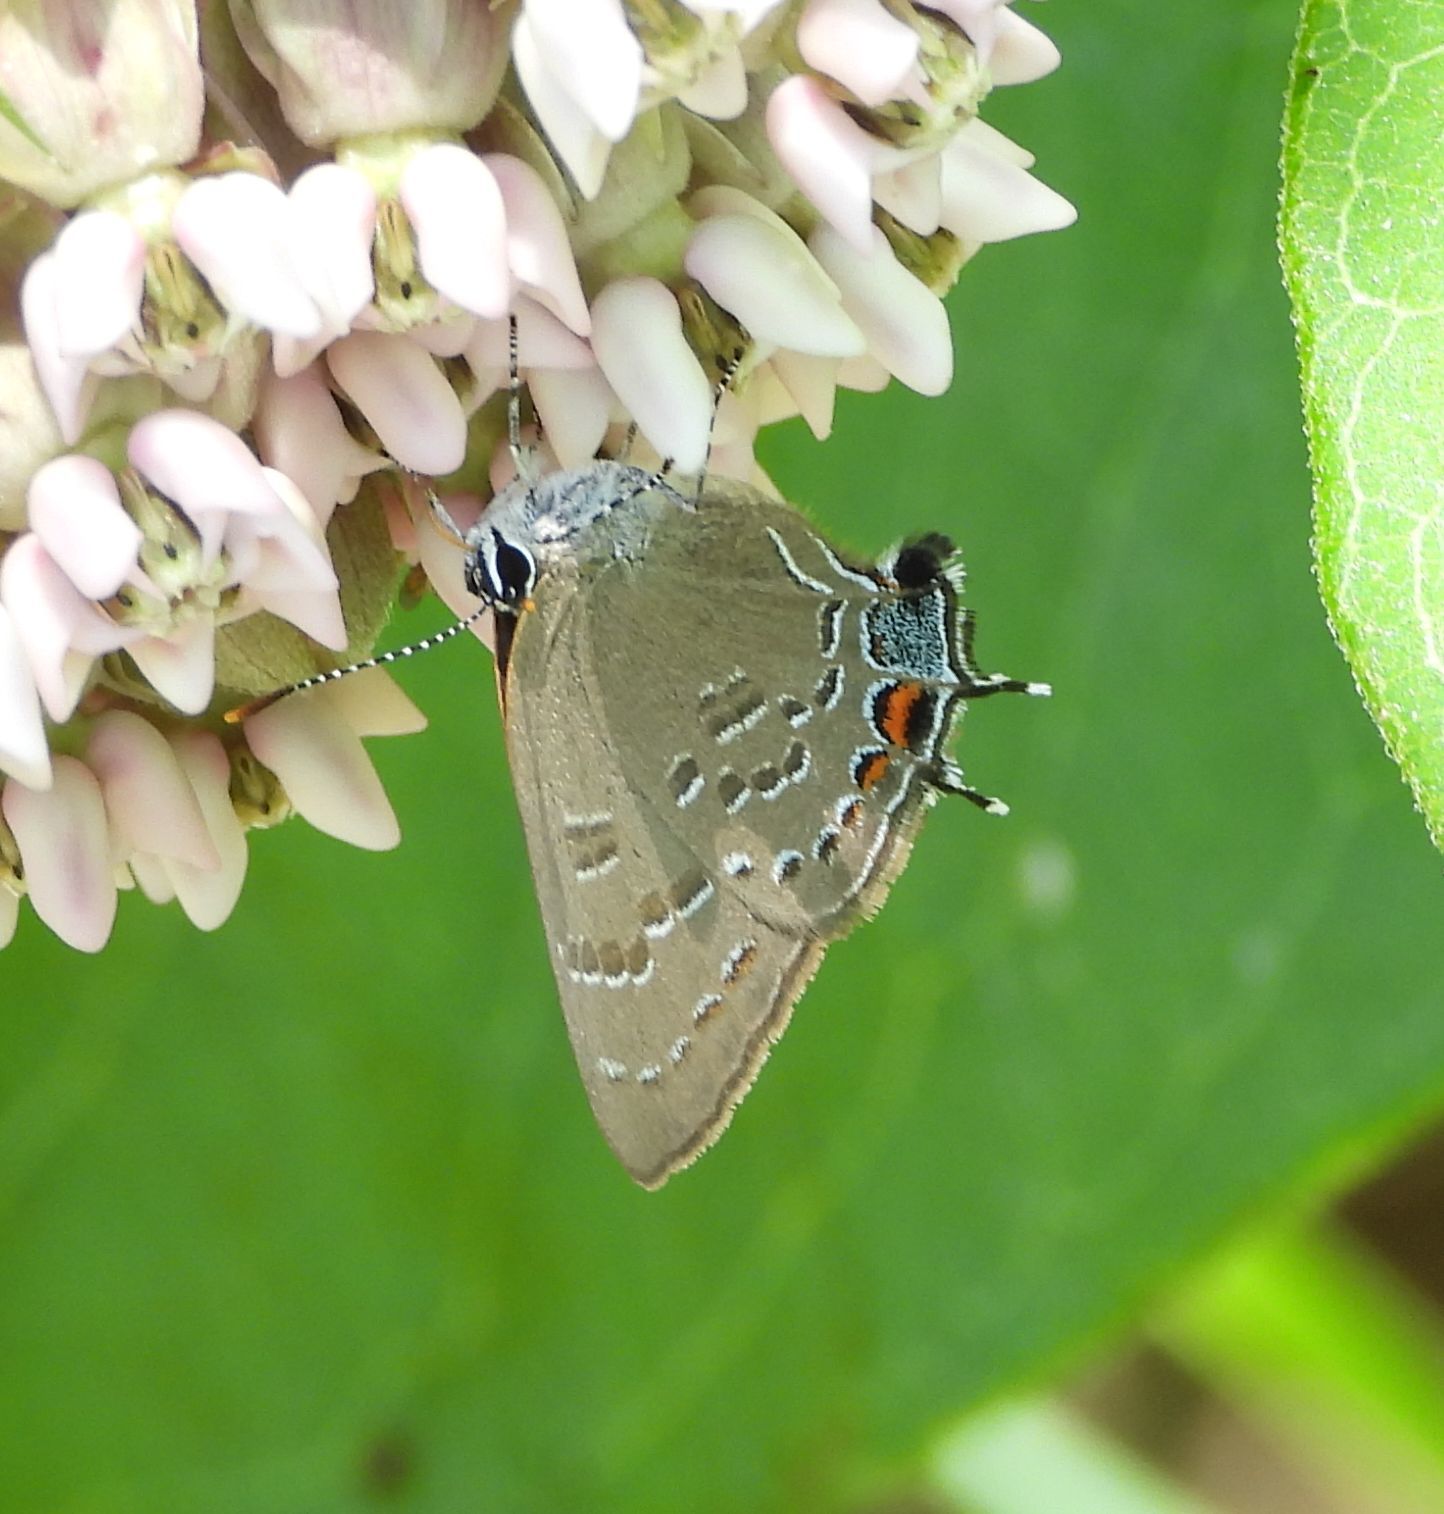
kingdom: Animalia
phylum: Arthropoda
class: Insecta
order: Lepidoptera
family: Lycaenidae
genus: Satyrium
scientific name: Satyrium calanus
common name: Banded hairstreak
